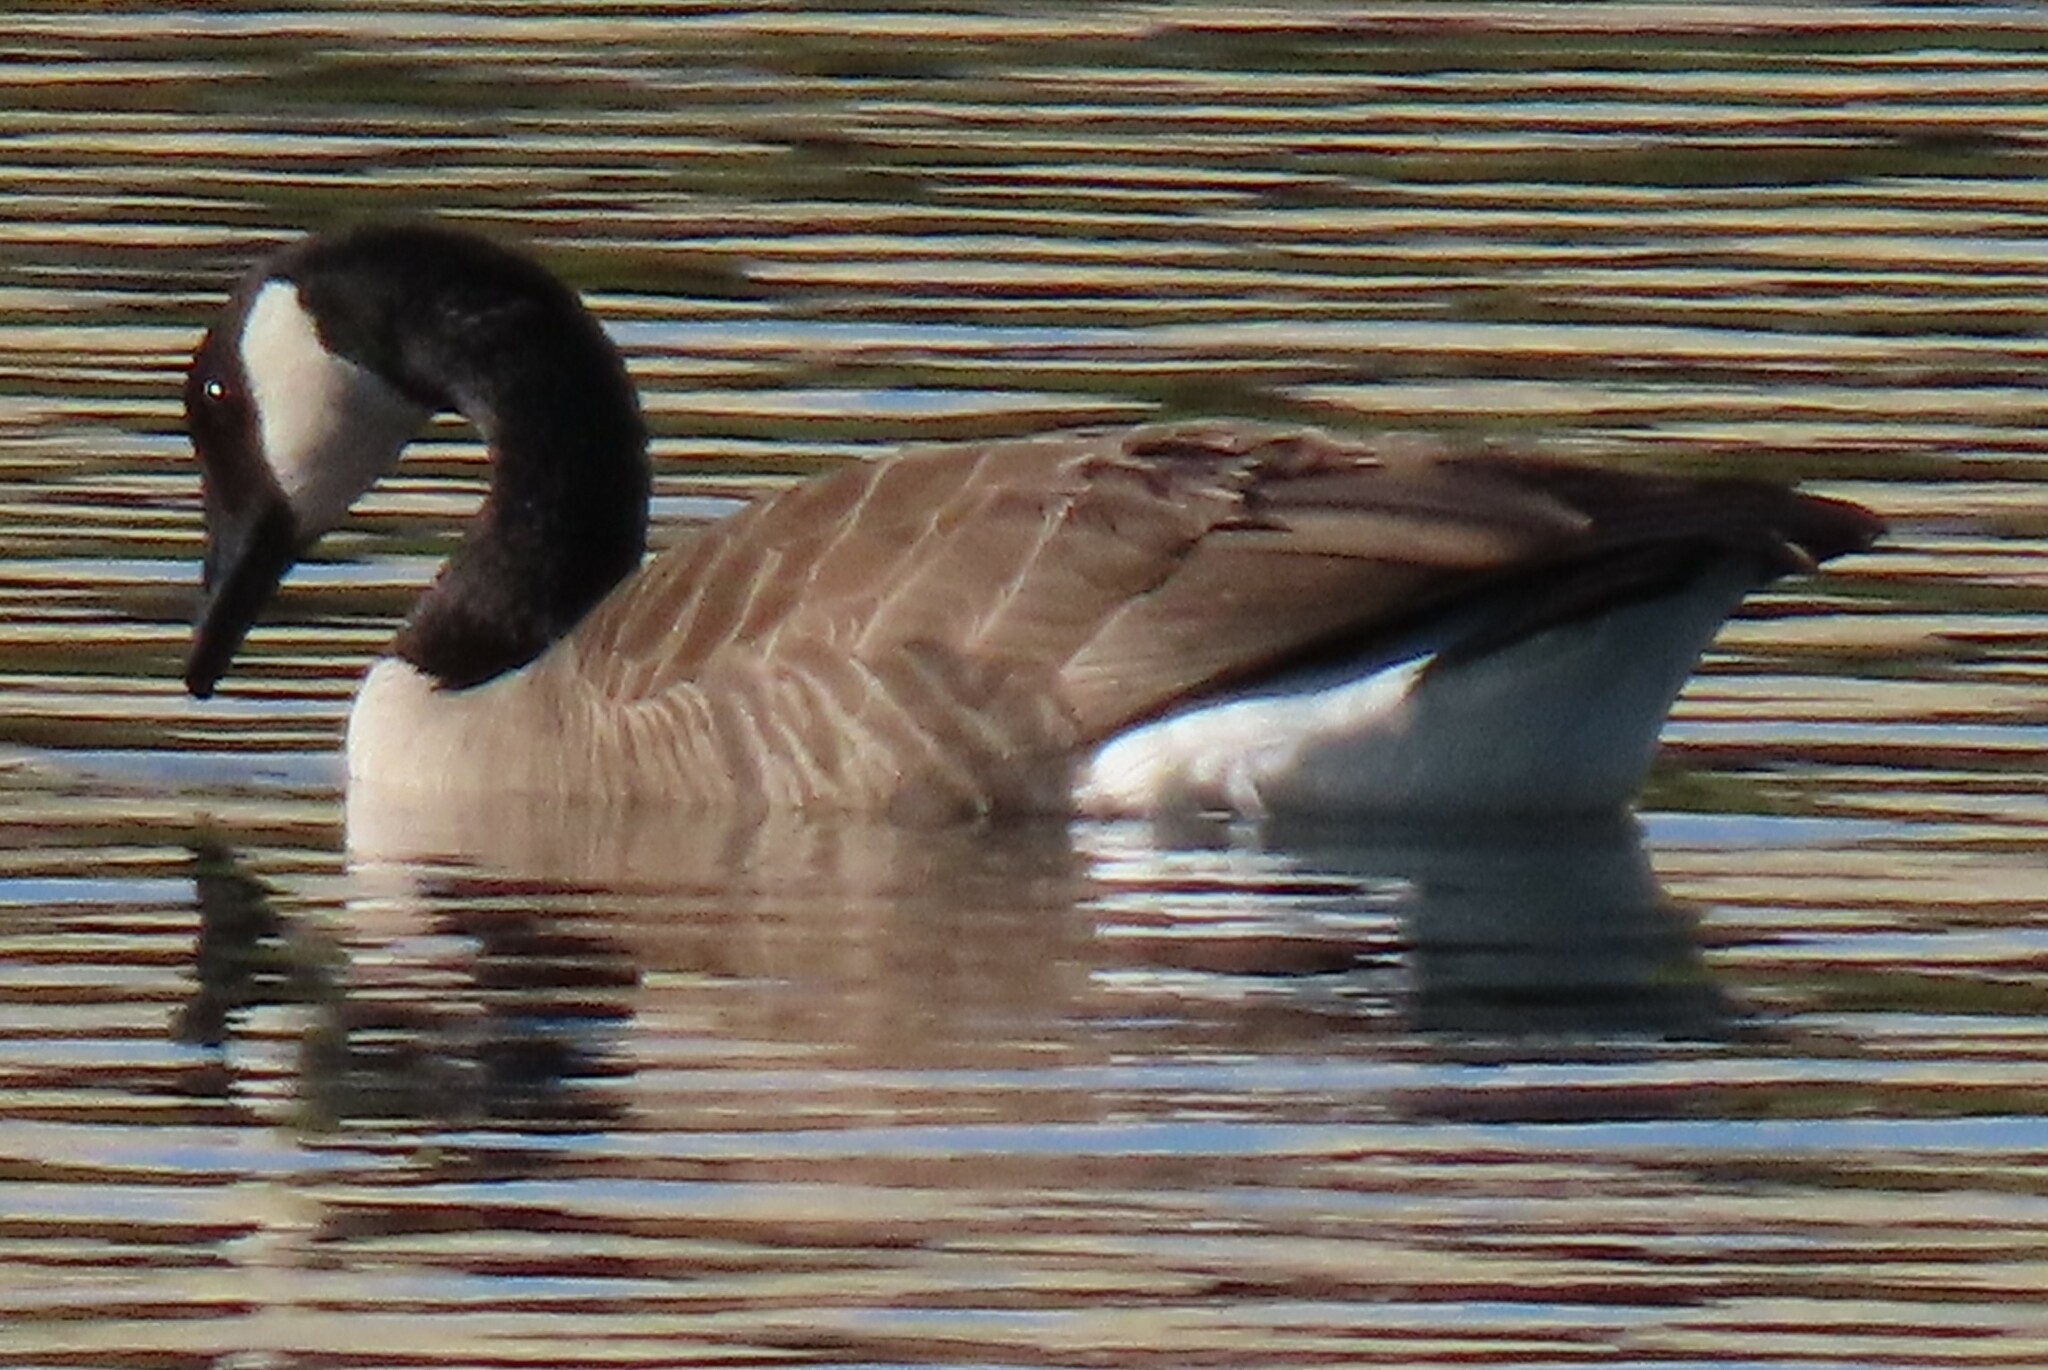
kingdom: Animalia
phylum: Chordata
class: Aves
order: Anseriformes
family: Anatidae
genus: Branta
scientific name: Branta canadensis
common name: Canada goose
